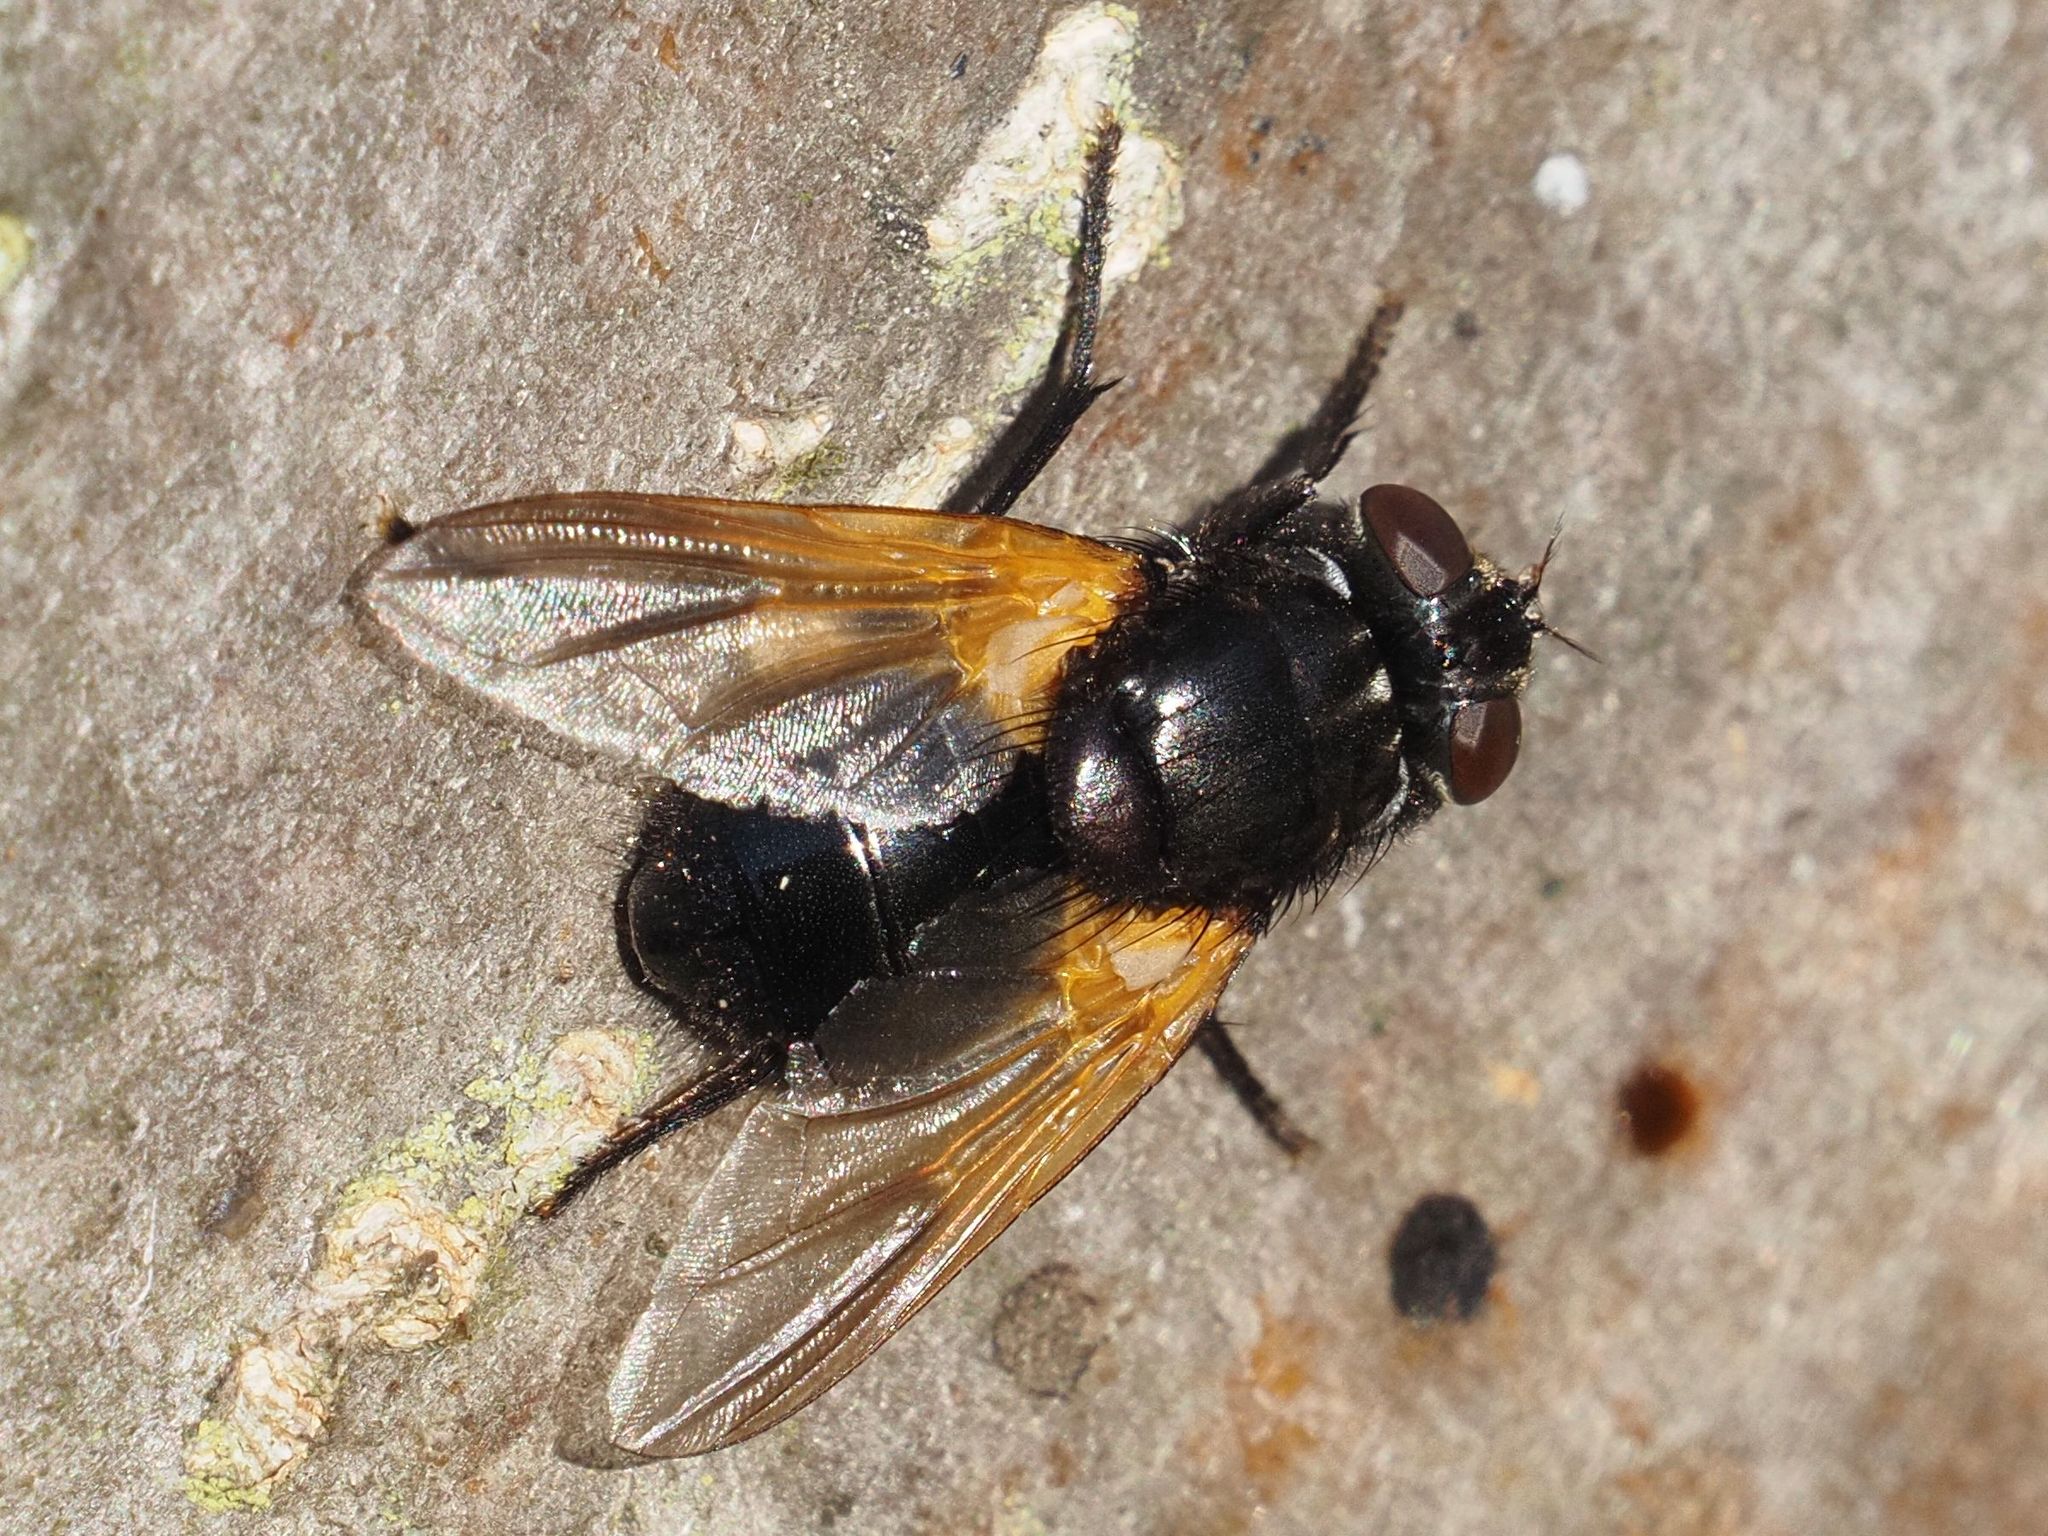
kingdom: Animalia
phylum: Arthropoda
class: Insecta
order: Diptera
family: Muscidae
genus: Mesembrina
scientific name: Mesembrina meridiana
